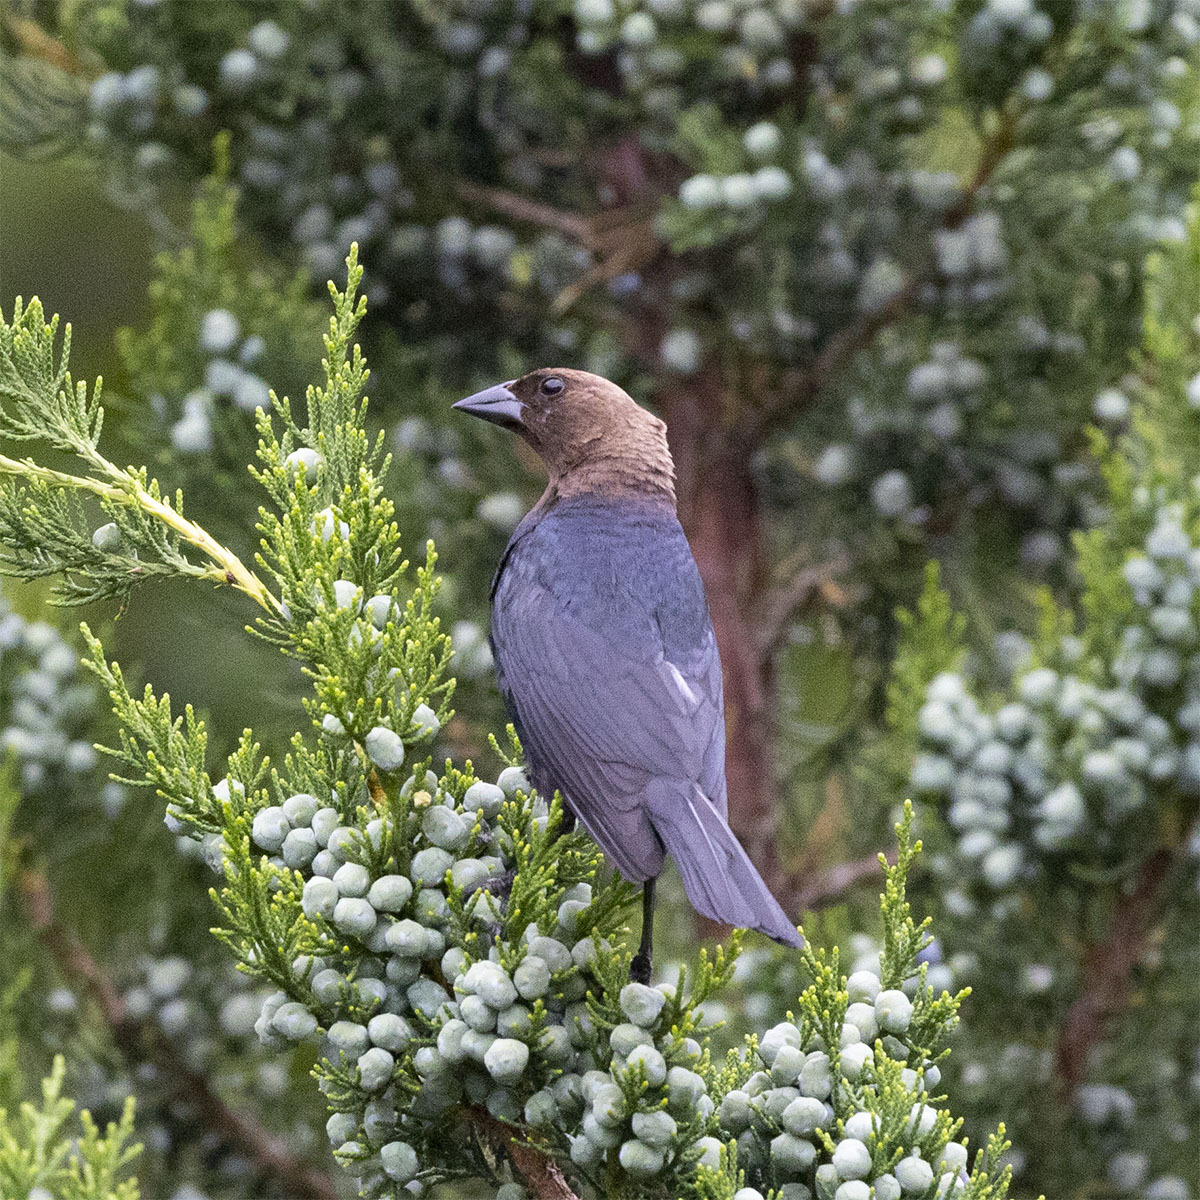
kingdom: Animalia
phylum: Chordata
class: Aves
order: Passeriformes
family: Icteridae
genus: Molothrus
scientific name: Molothrus ater
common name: Brown-headed cowbird
